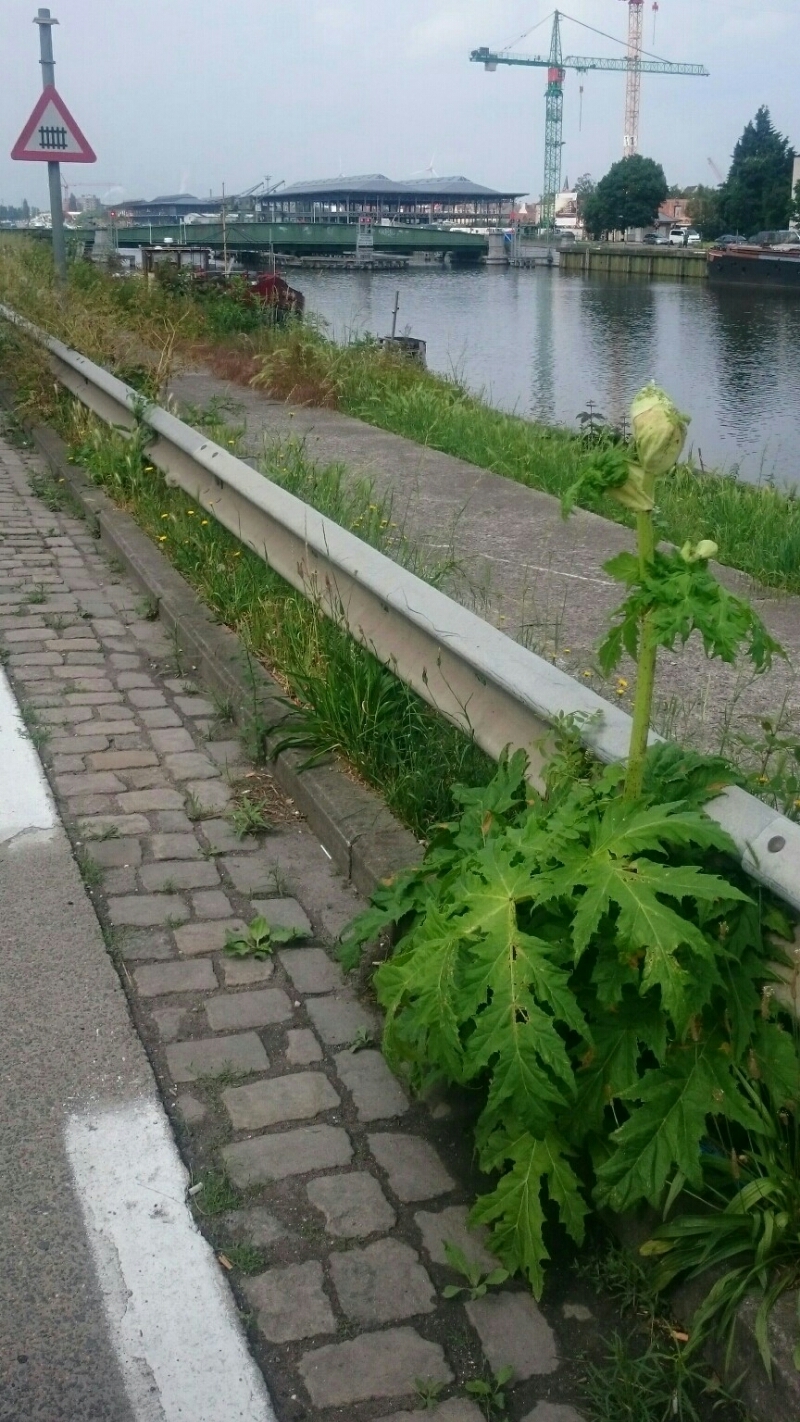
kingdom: Plantae
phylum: Tracheophyta
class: Magnoliopsida
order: Apiales
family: Apiaceae
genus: Heracleum
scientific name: Heracleum mantegazzianum
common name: Giant hogweed
